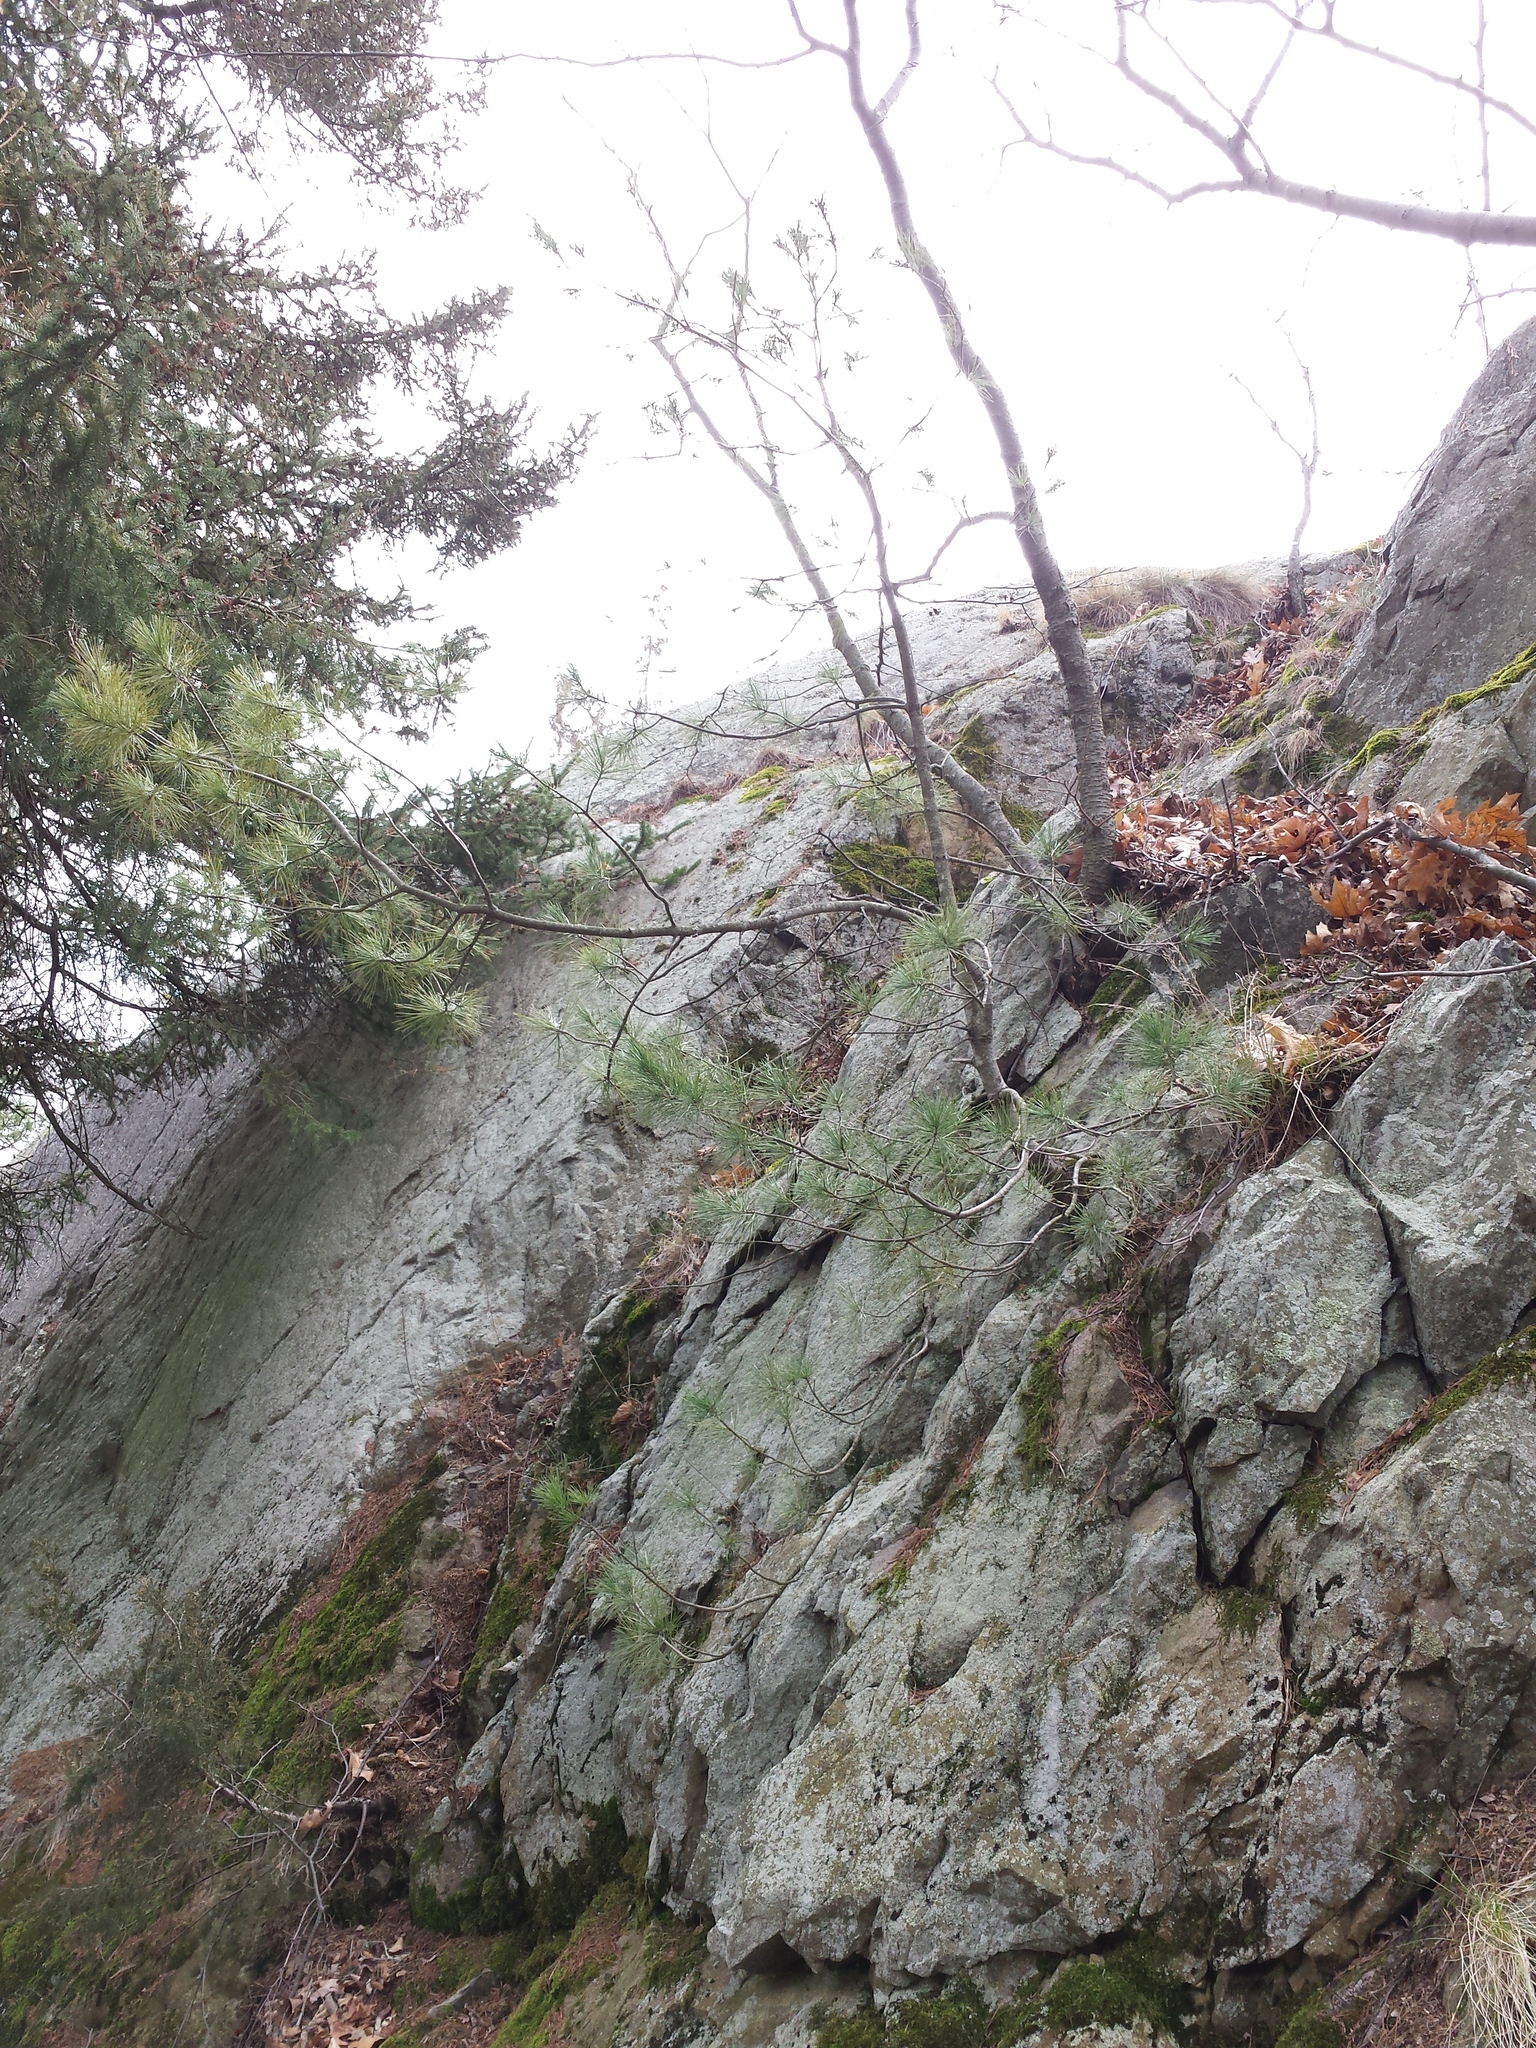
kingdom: Plantae
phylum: Tracheophyta
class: Pinopsida
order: Pinales
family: Pinaceae
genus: Pinus
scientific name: Pinus strobus
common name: Weymouth pine
